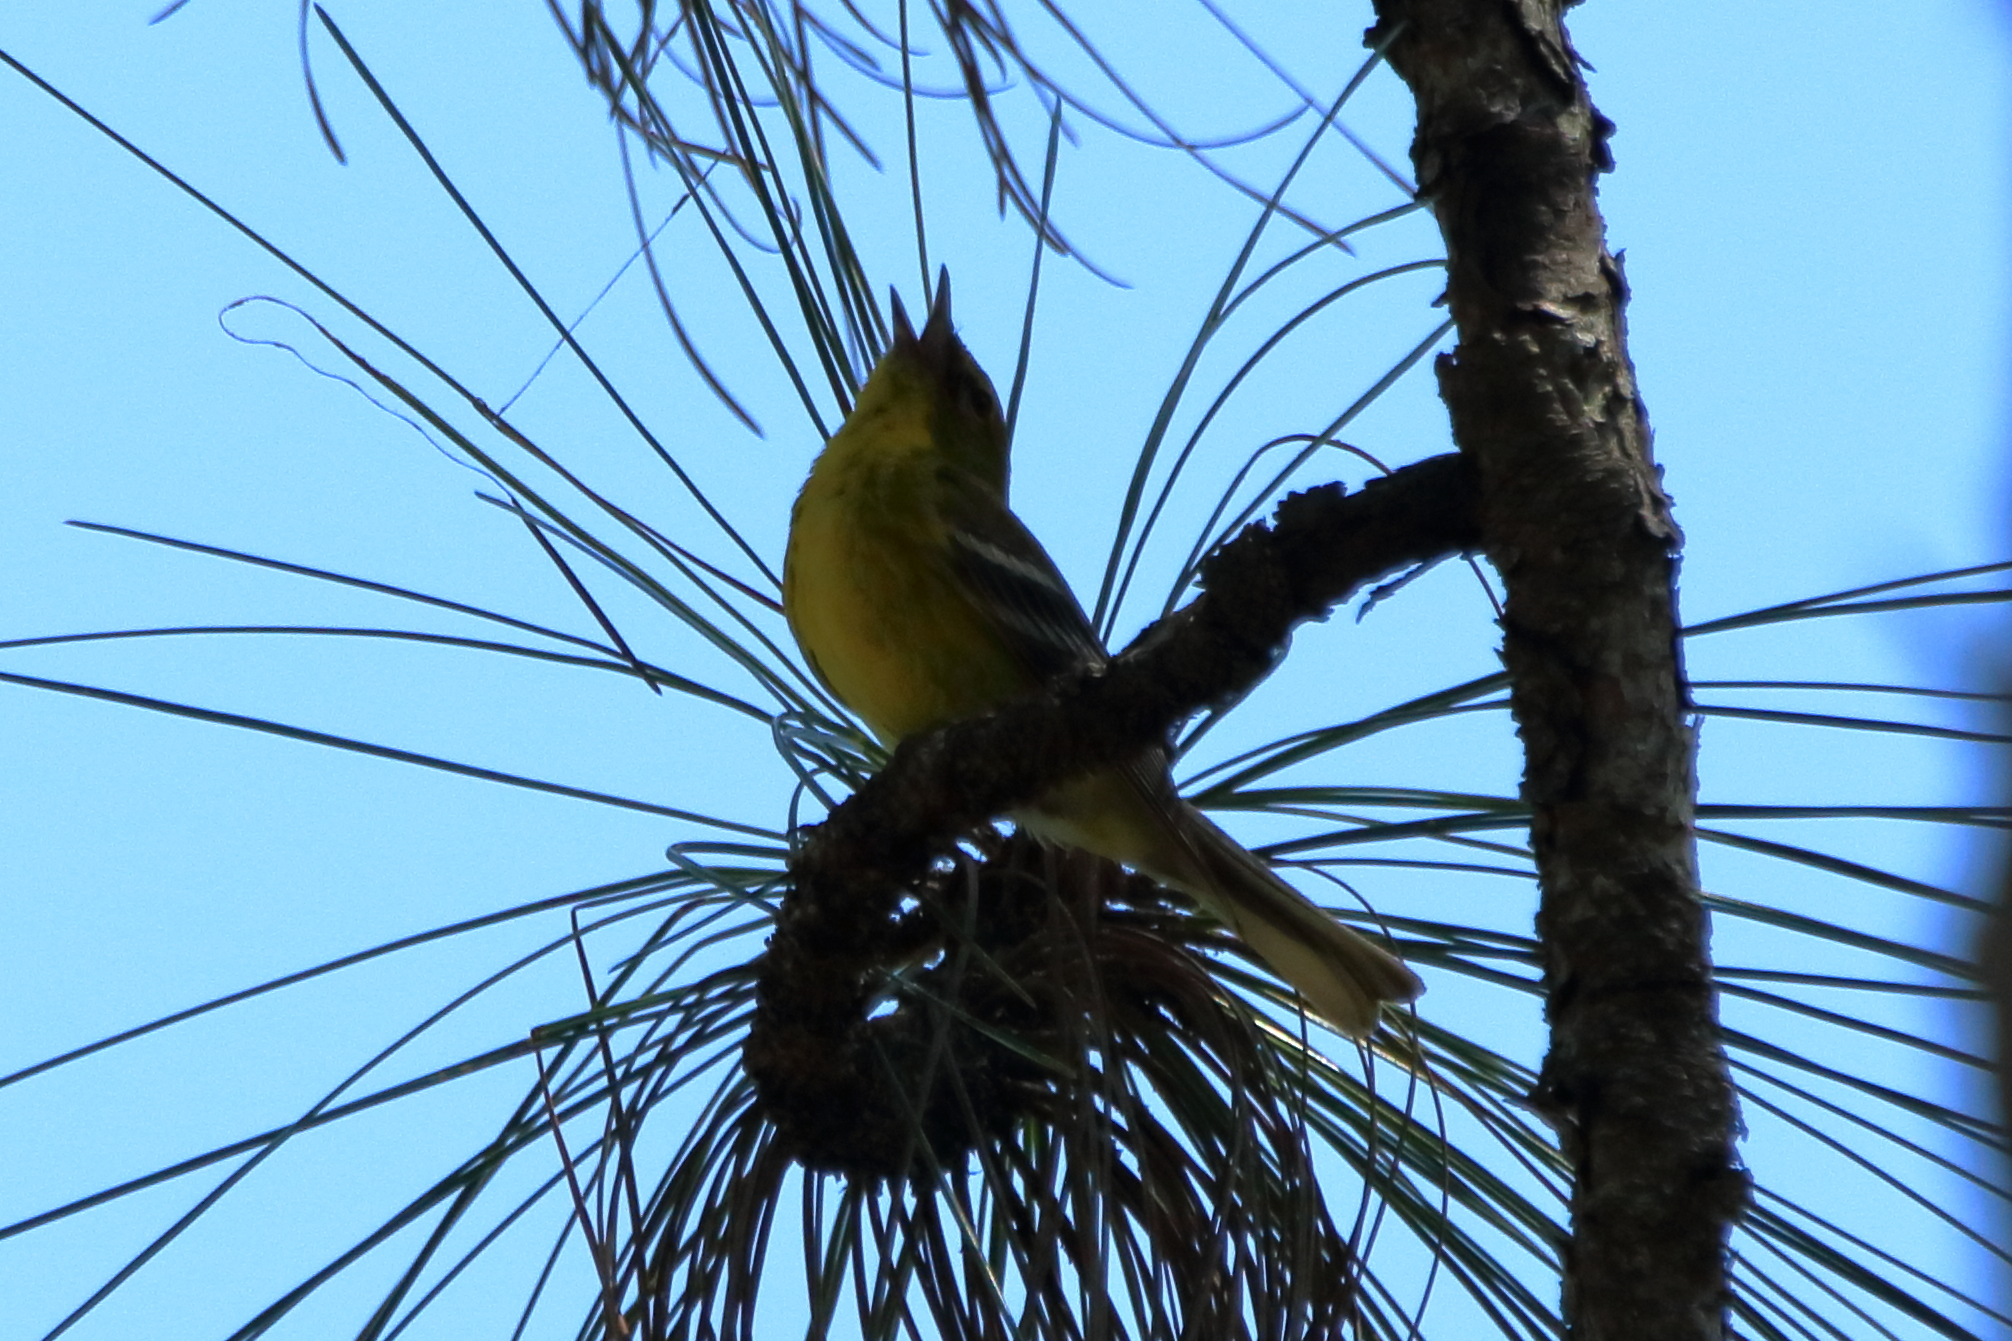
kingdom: Animalia
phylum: Chordata
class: Aves
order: Passeriformes
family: Parulidae
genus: Setophaga
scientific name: Setophaga pinus
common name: Pine warbler
